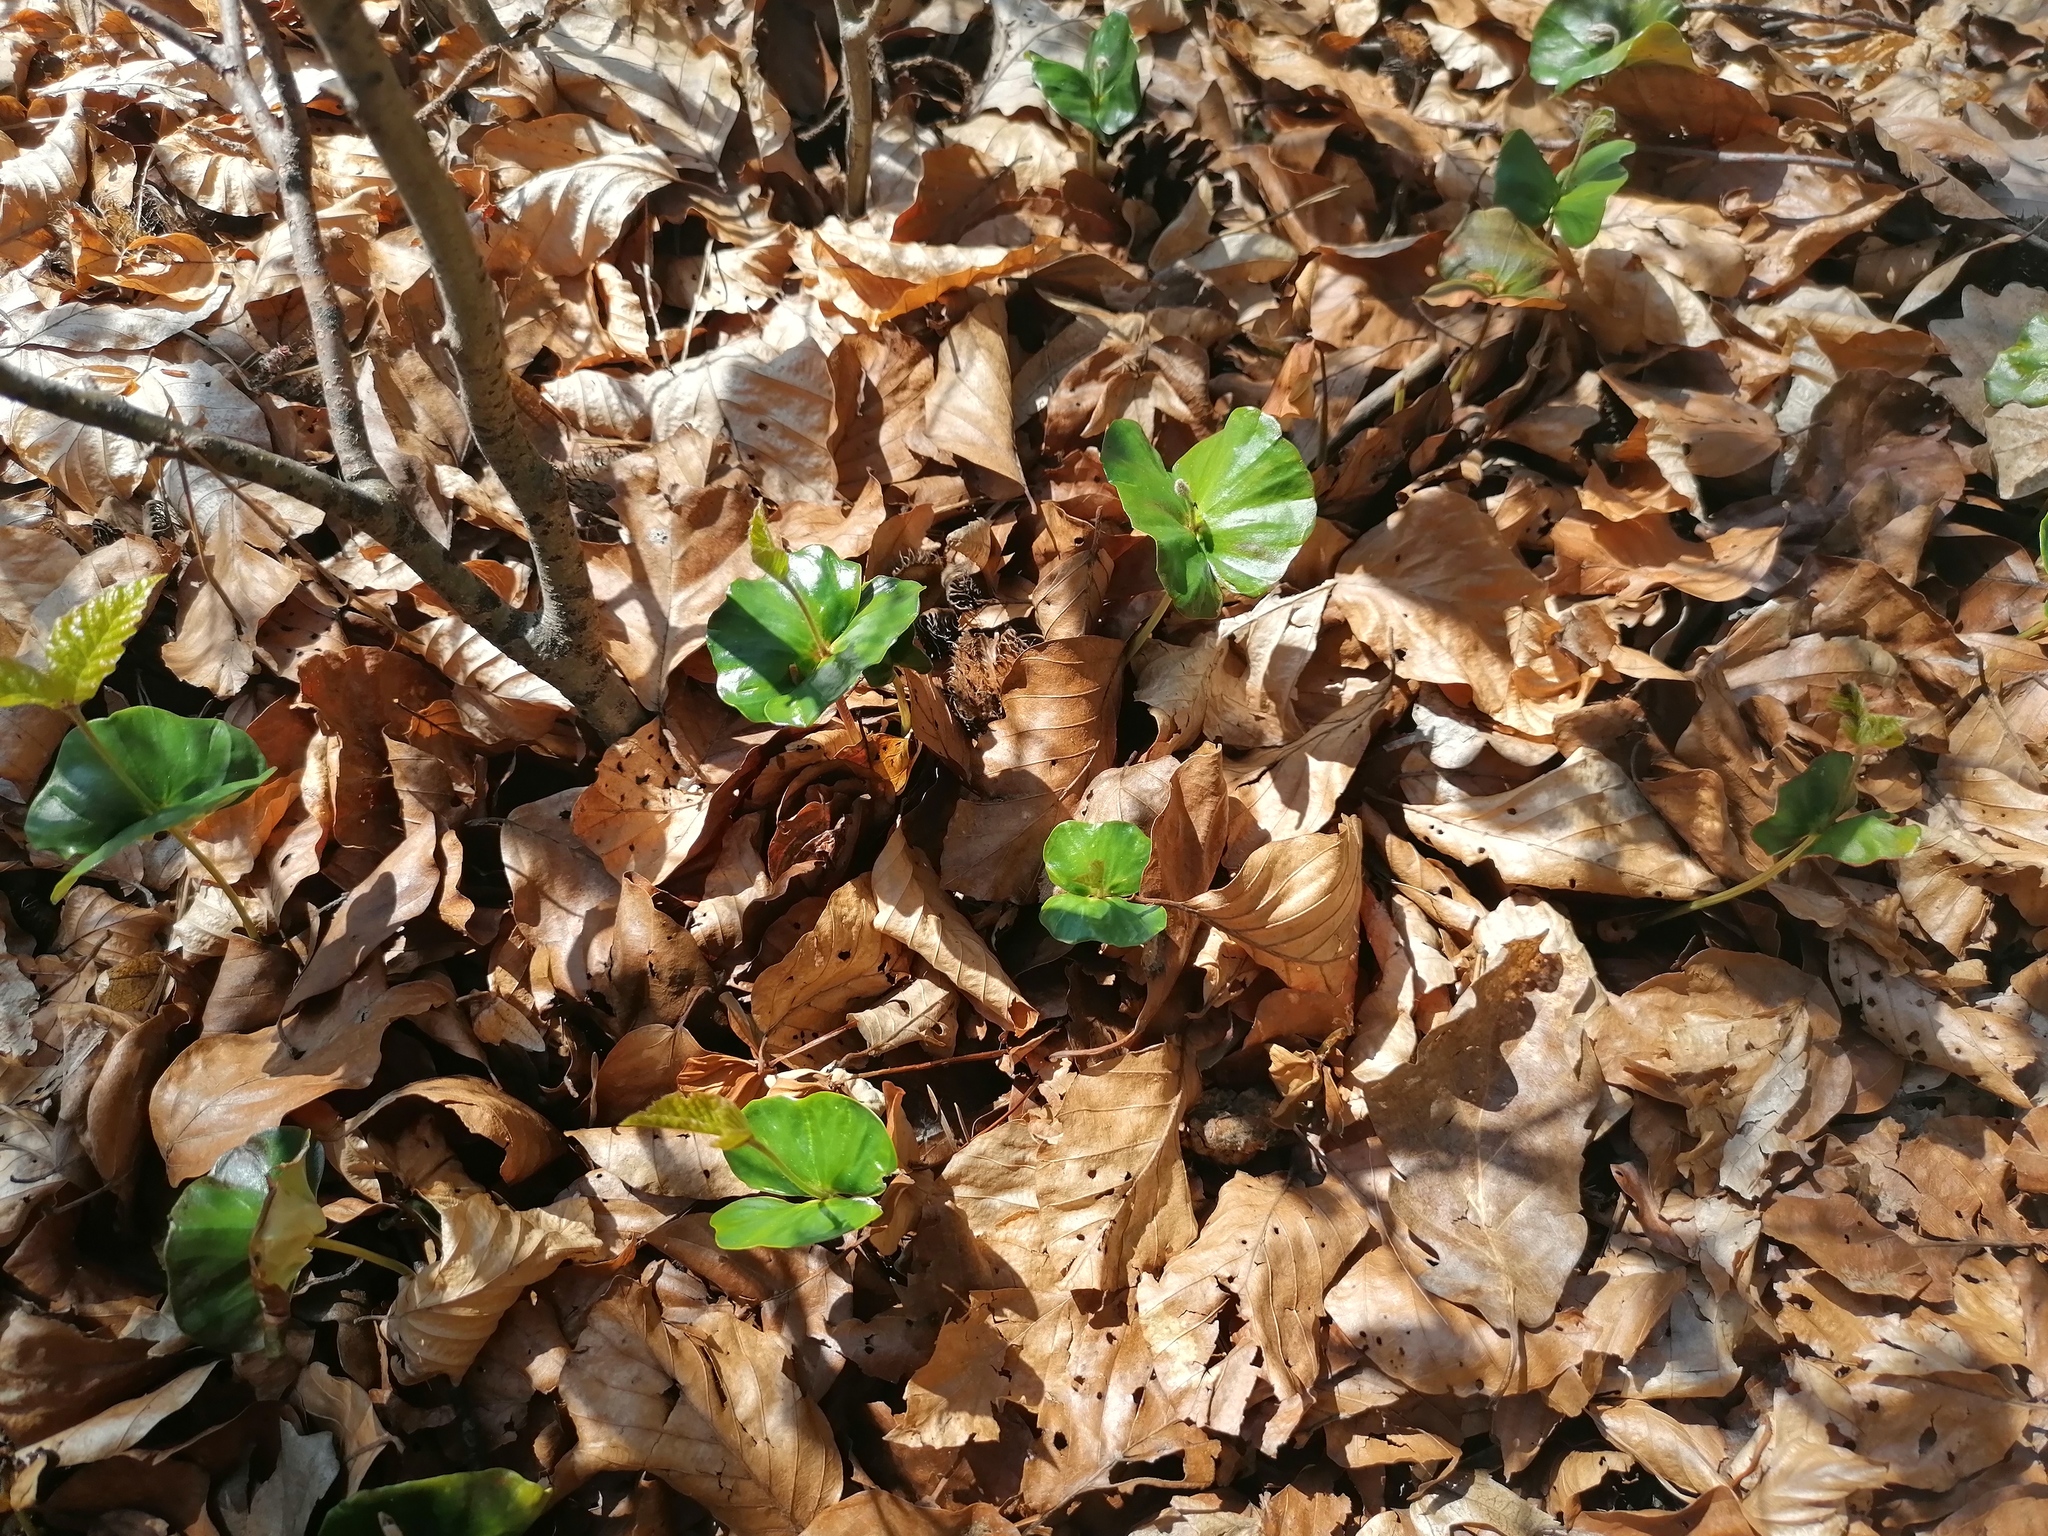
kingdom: Plantae
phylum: Tracheophyta
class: Magnoliopsida
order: Fagales
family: Fagaceae
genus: Fagus
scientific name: Fagus sylvatica
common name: Beech
